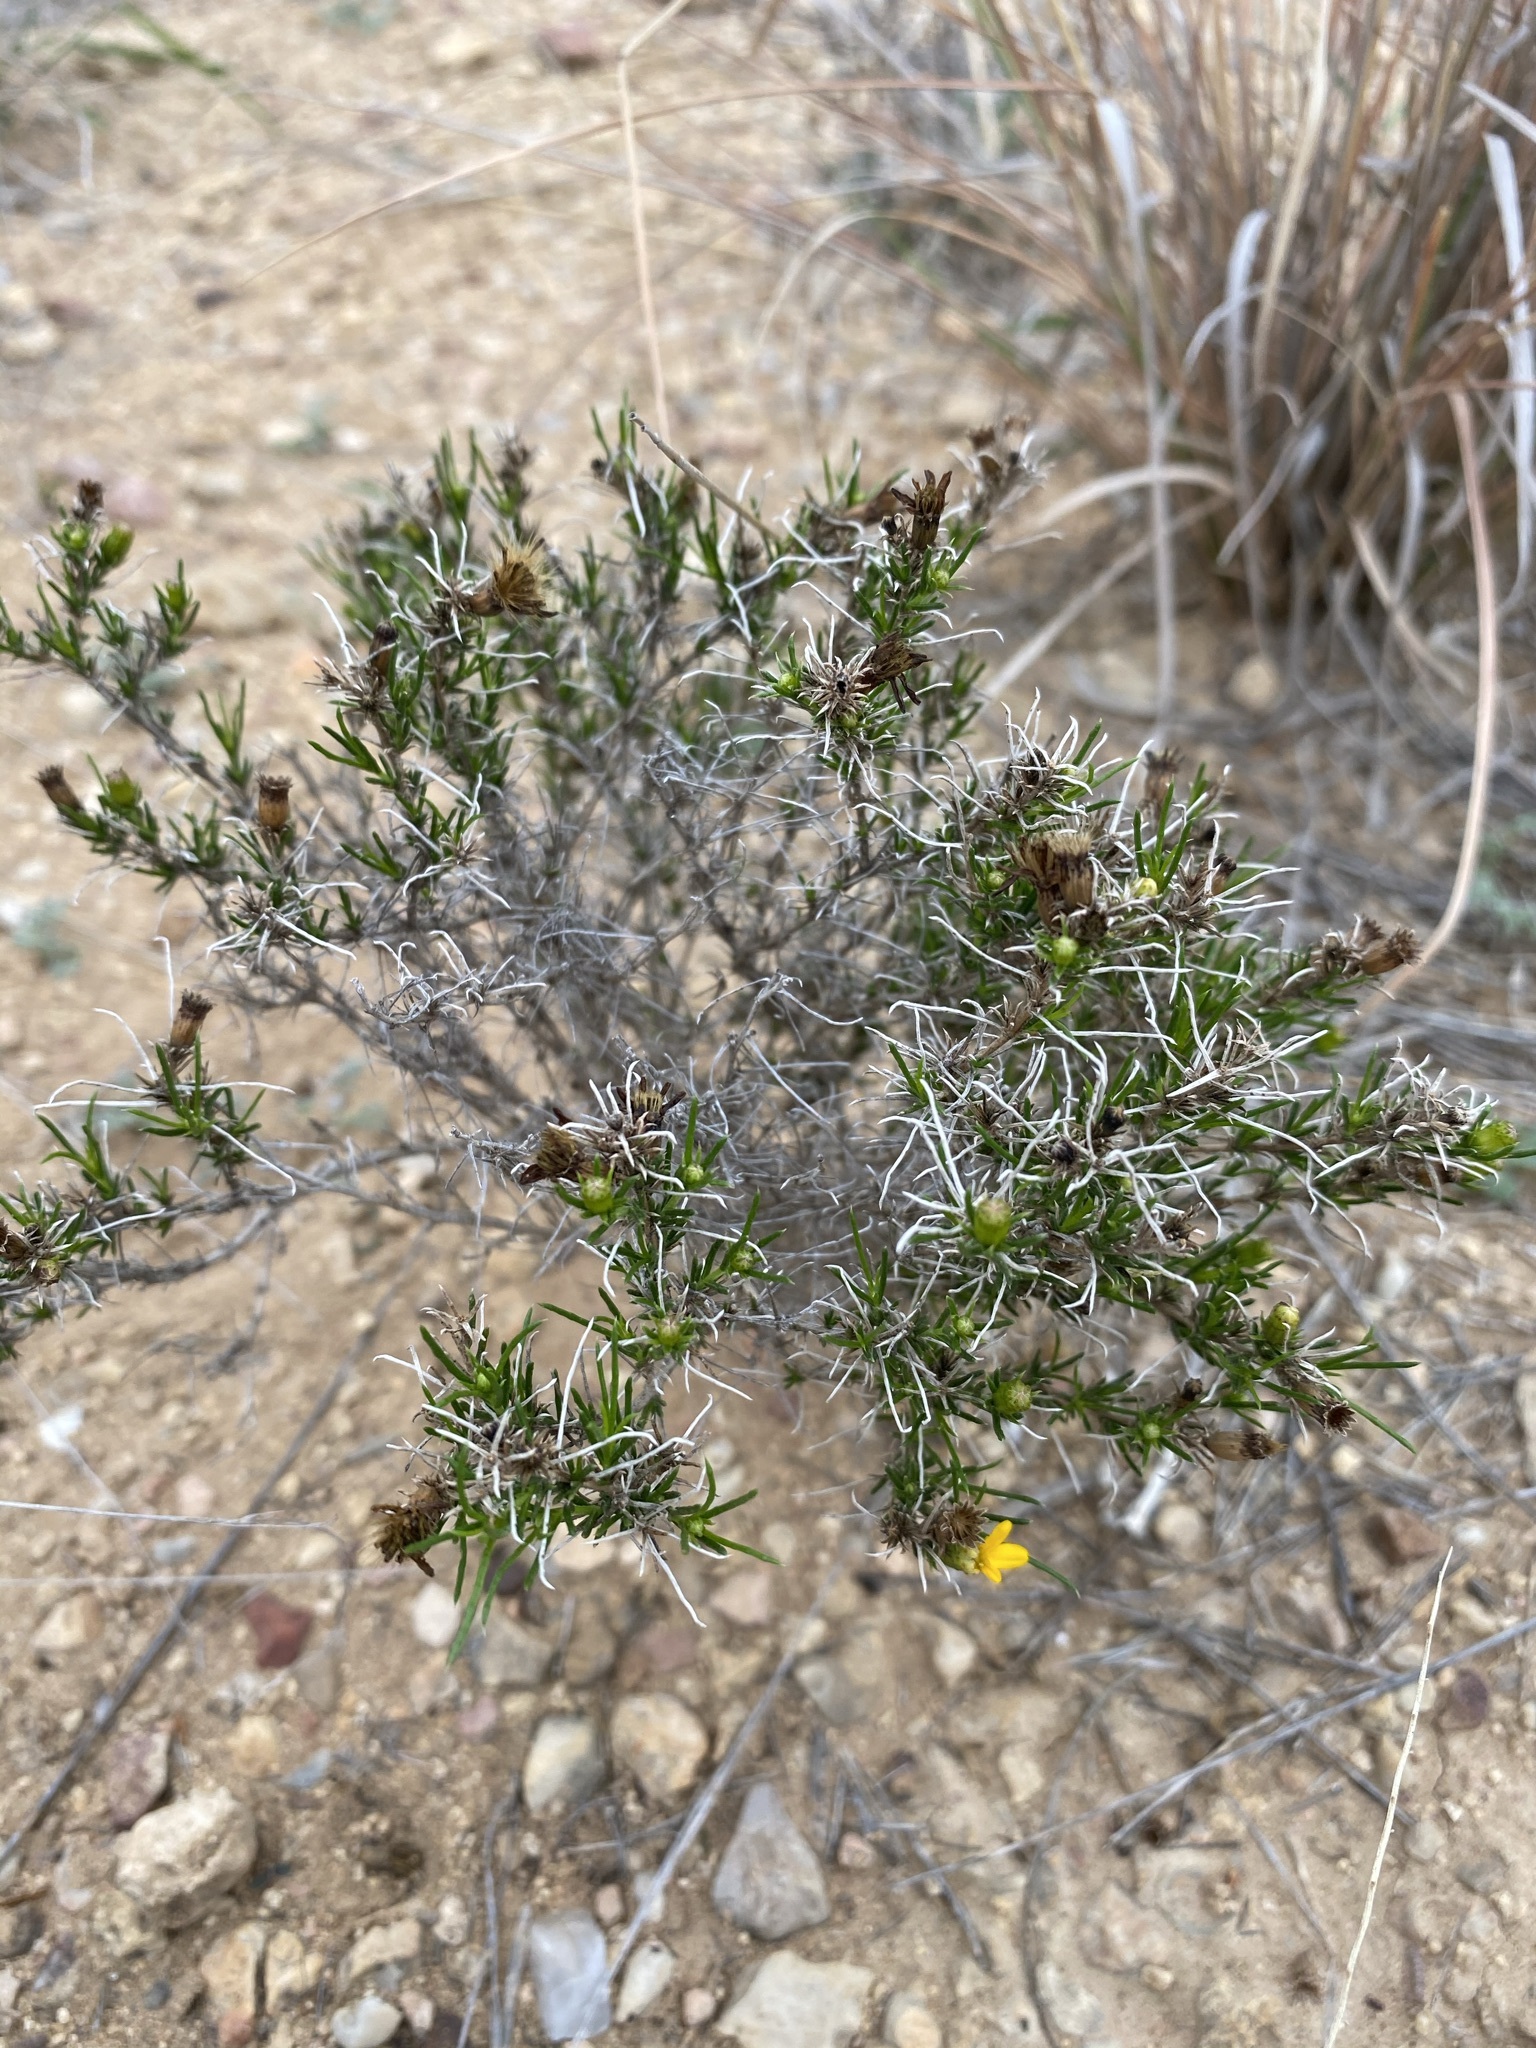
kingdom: Plantae
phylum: Tracheophyta
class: Magnoliopsida
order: Asterales
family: Asteraceae
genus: Thymophylla
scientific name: Thymophylla acerosa
